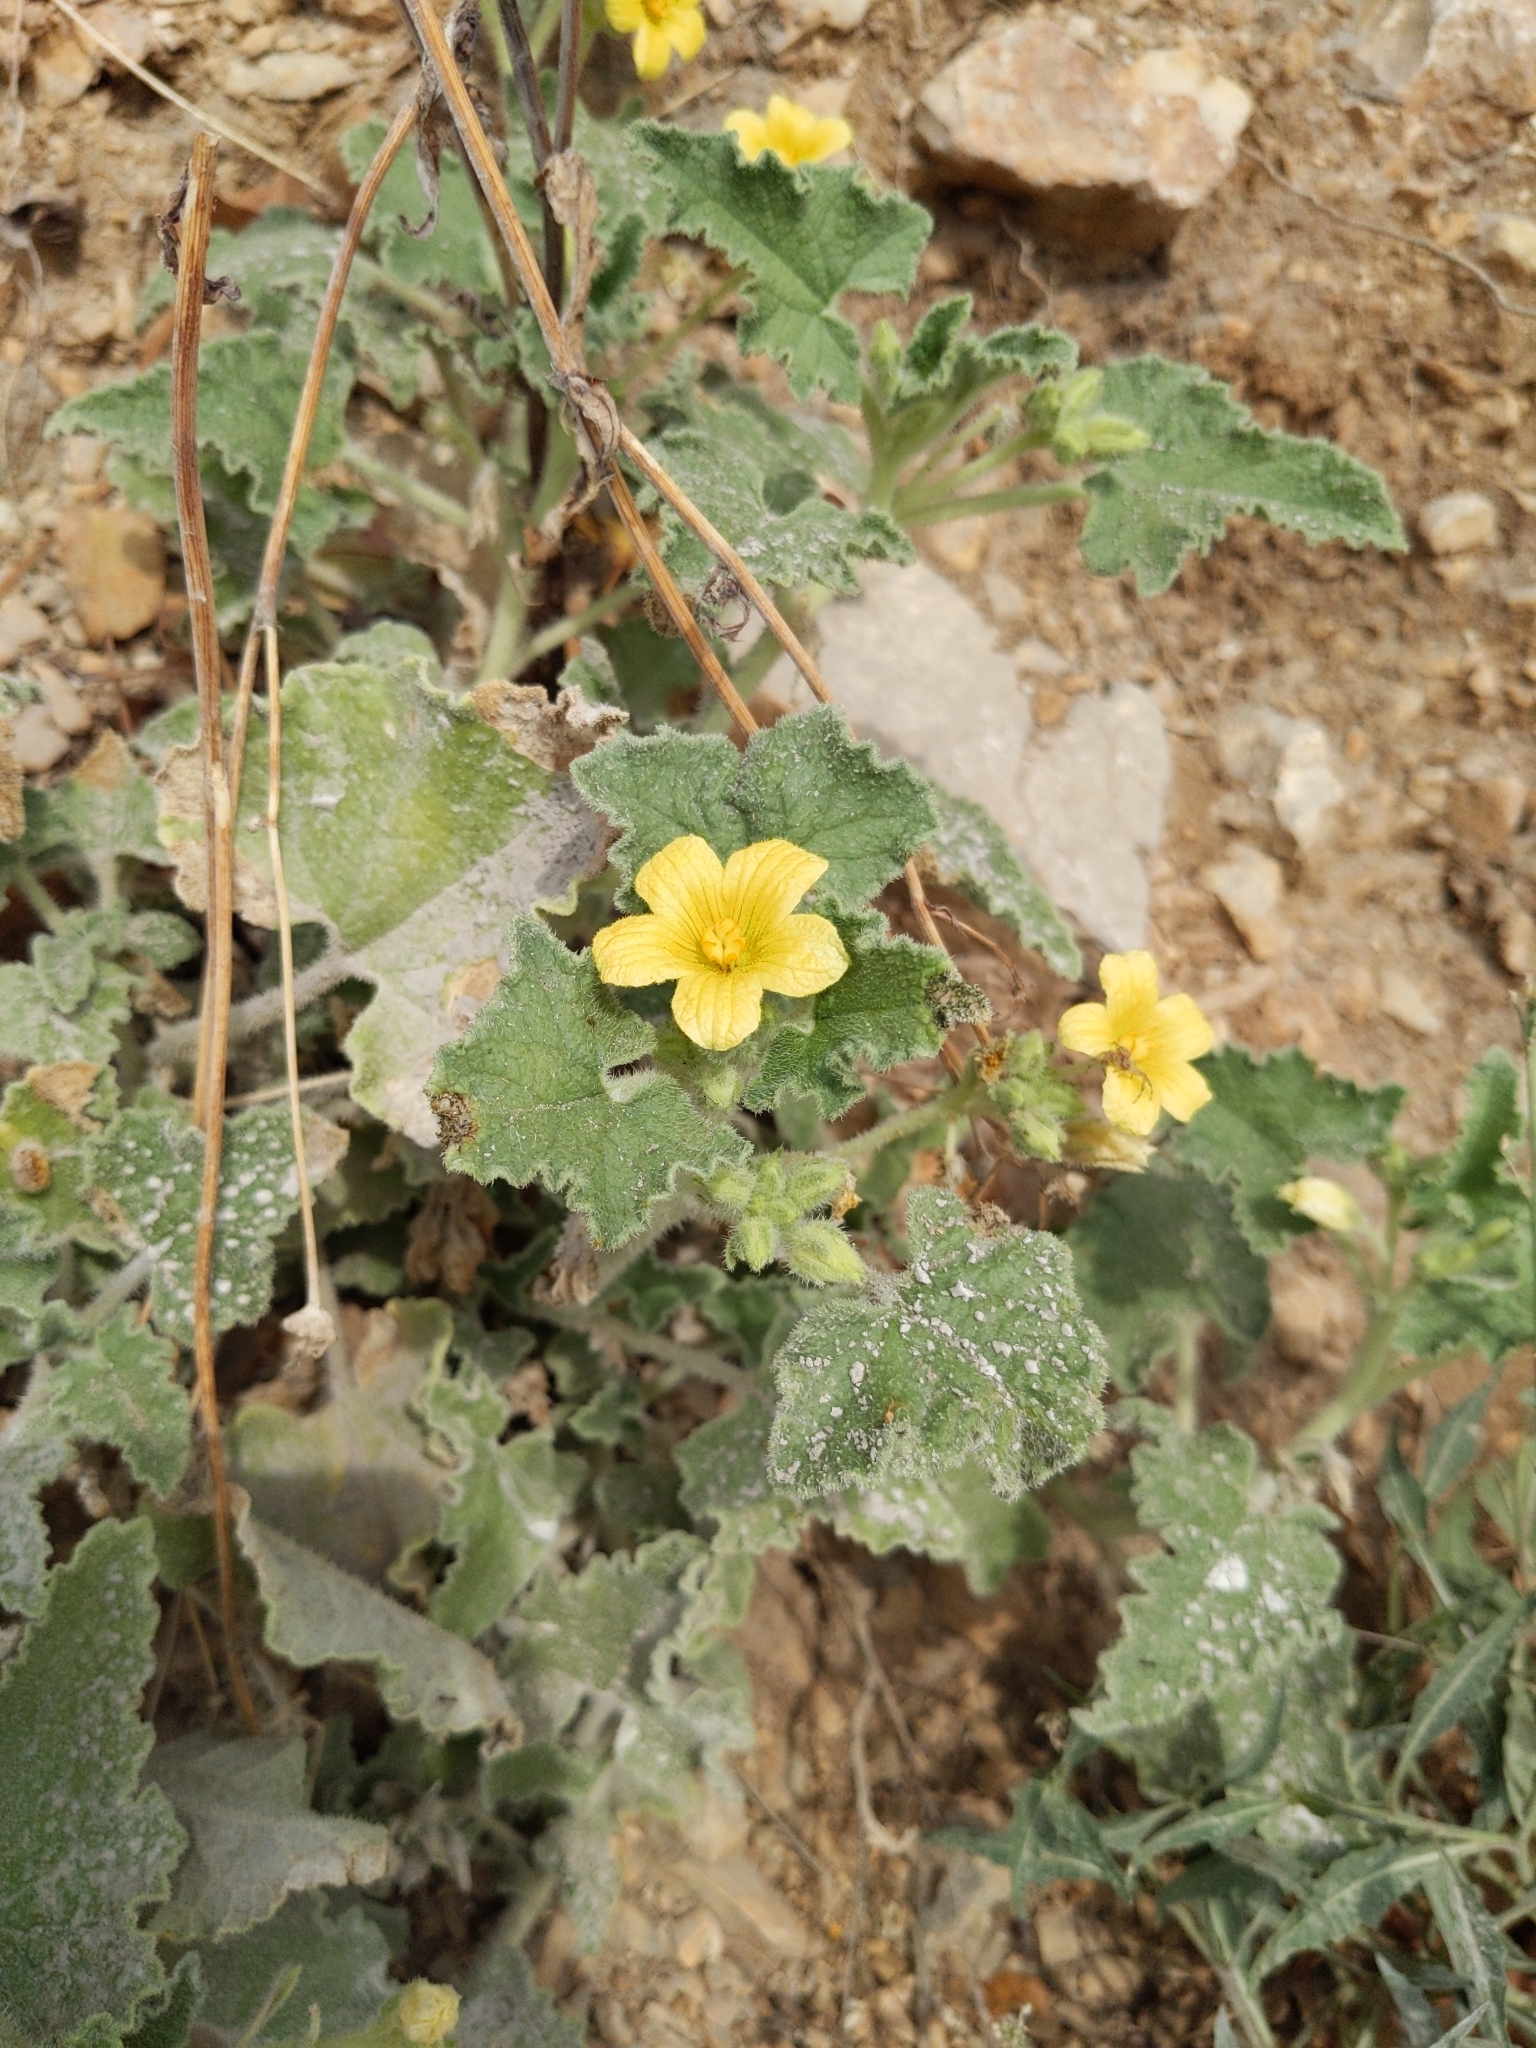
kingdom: Plantae
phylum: Tracheophyta
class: Magnoliopsida
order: Cucurbitales
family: Cucurbitaceae
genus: Ecballium
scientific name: Ecballium elaterium
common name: Squirting cucumber
